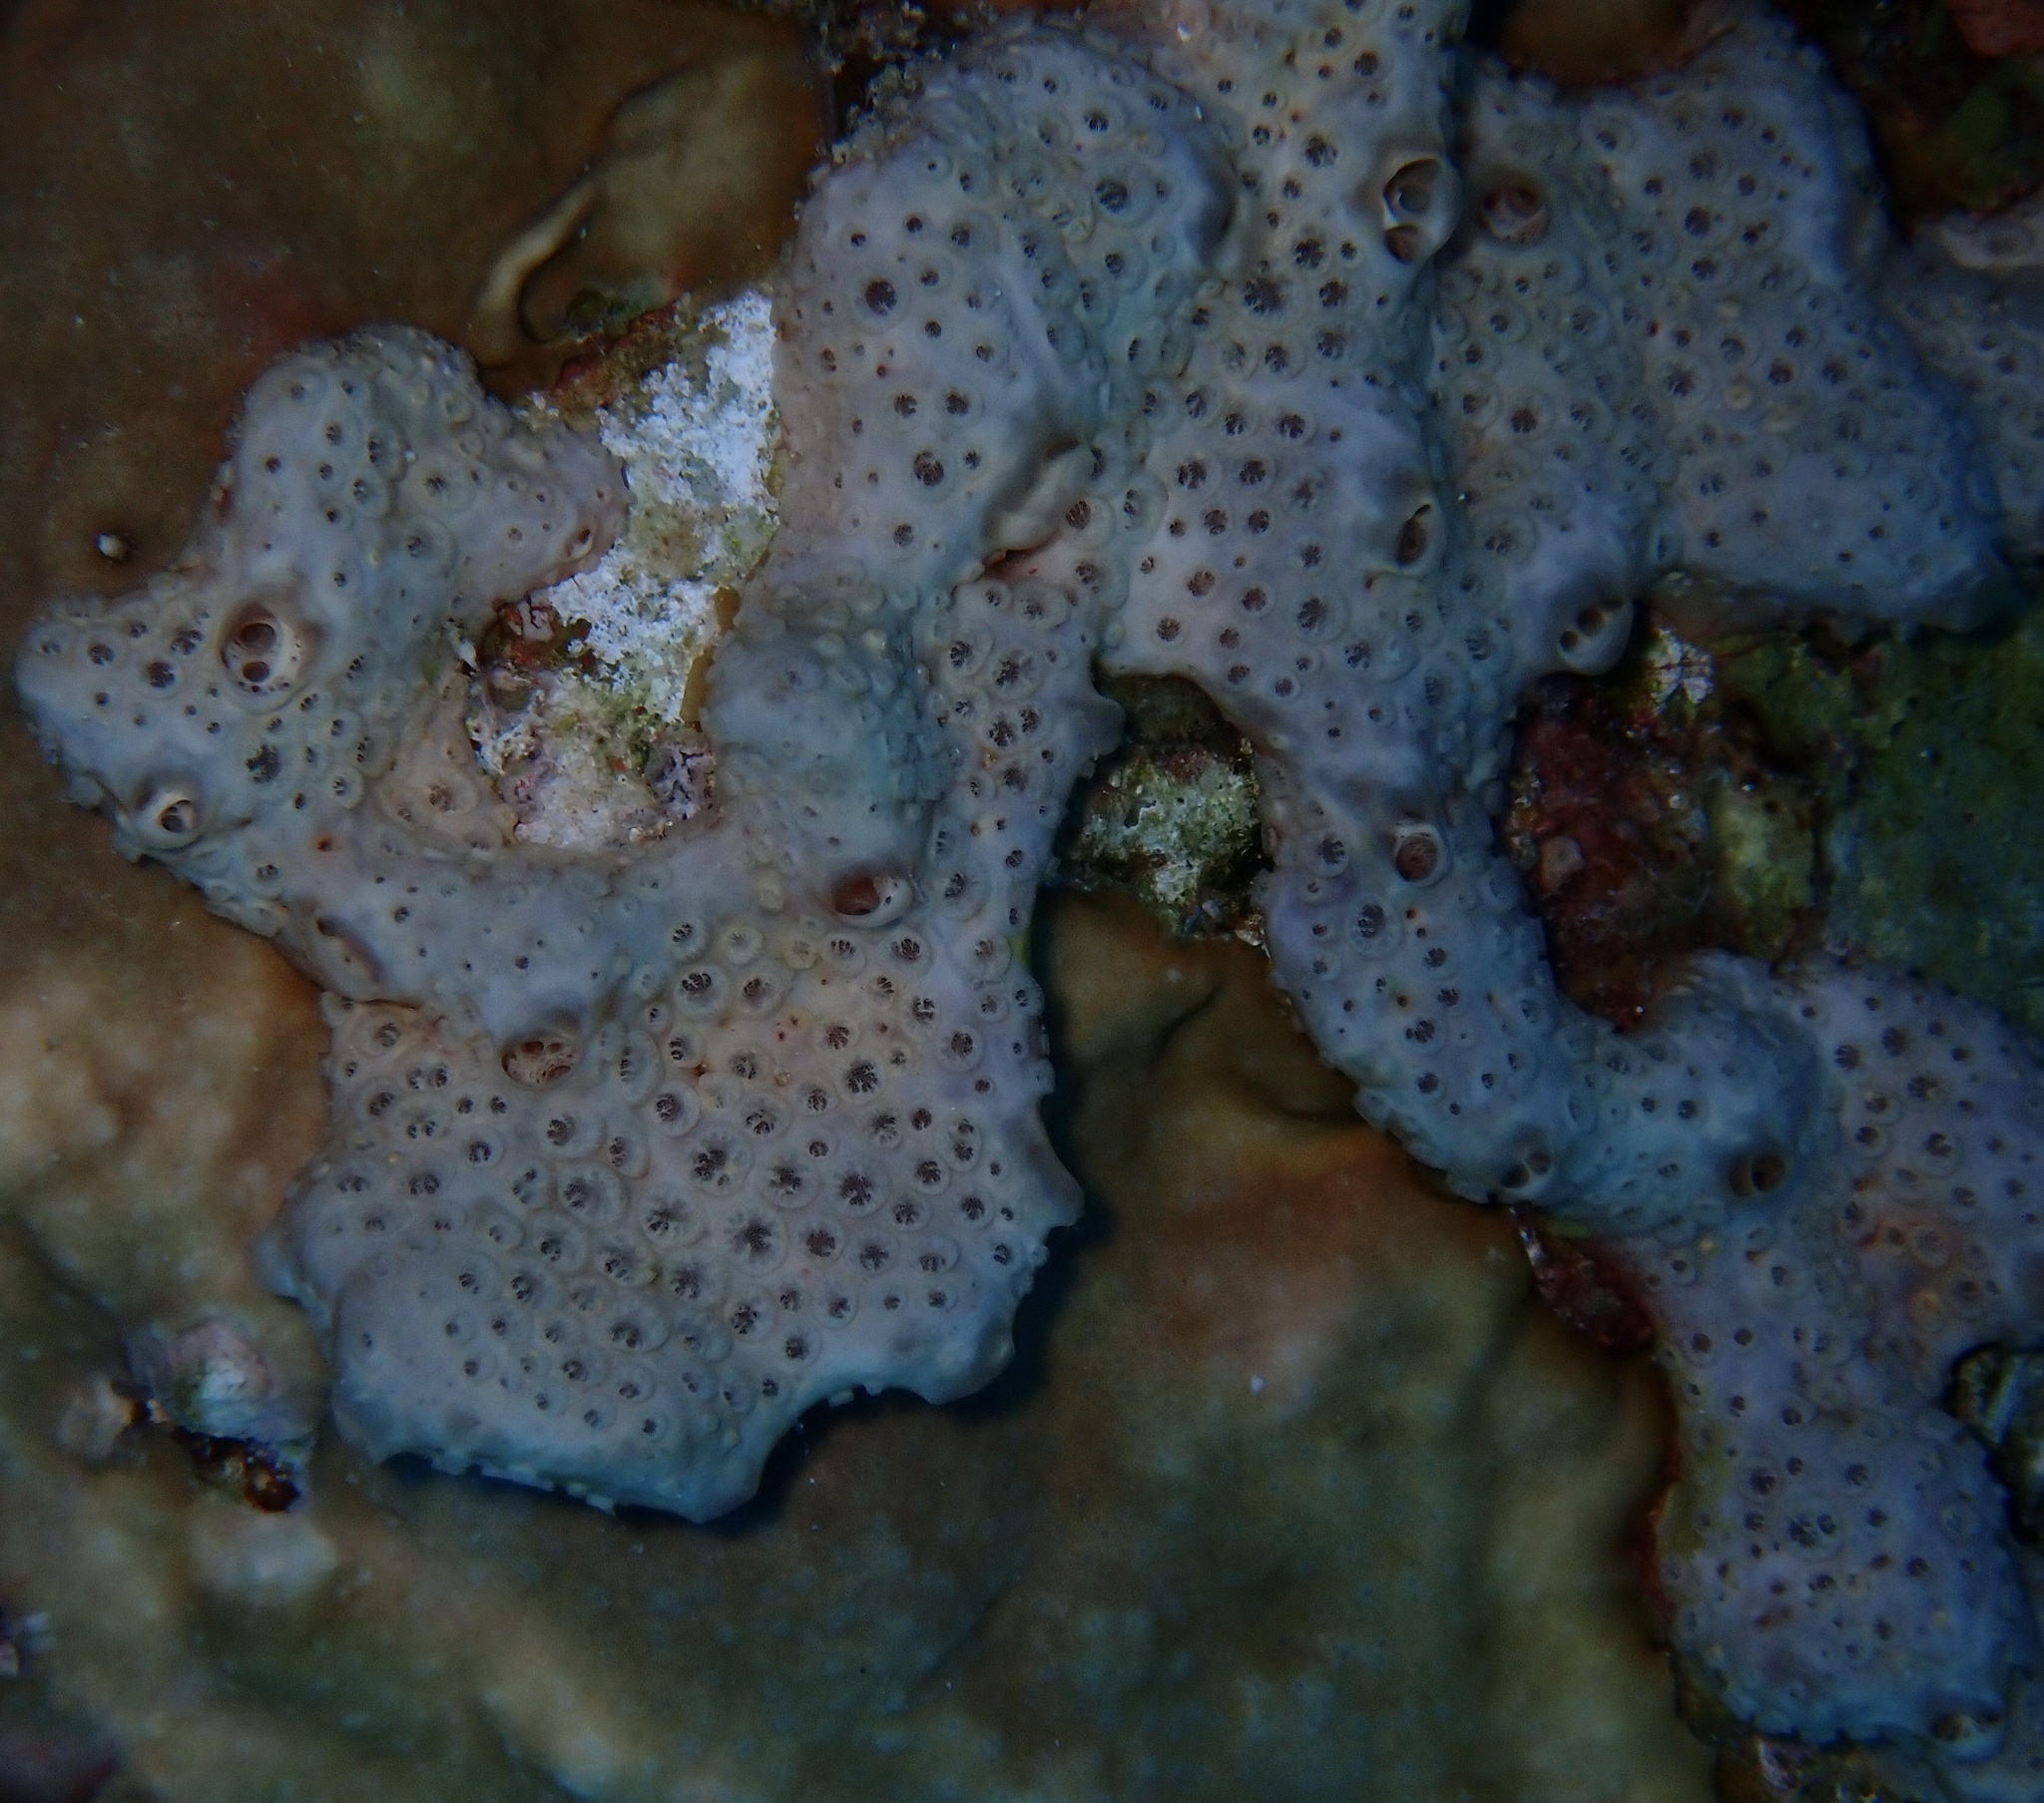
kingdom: Animalia
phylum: Porifera
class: Demospongiae
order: Poecilosclerida
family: Crellidae
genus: Crella
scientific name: Crella cyathophora
